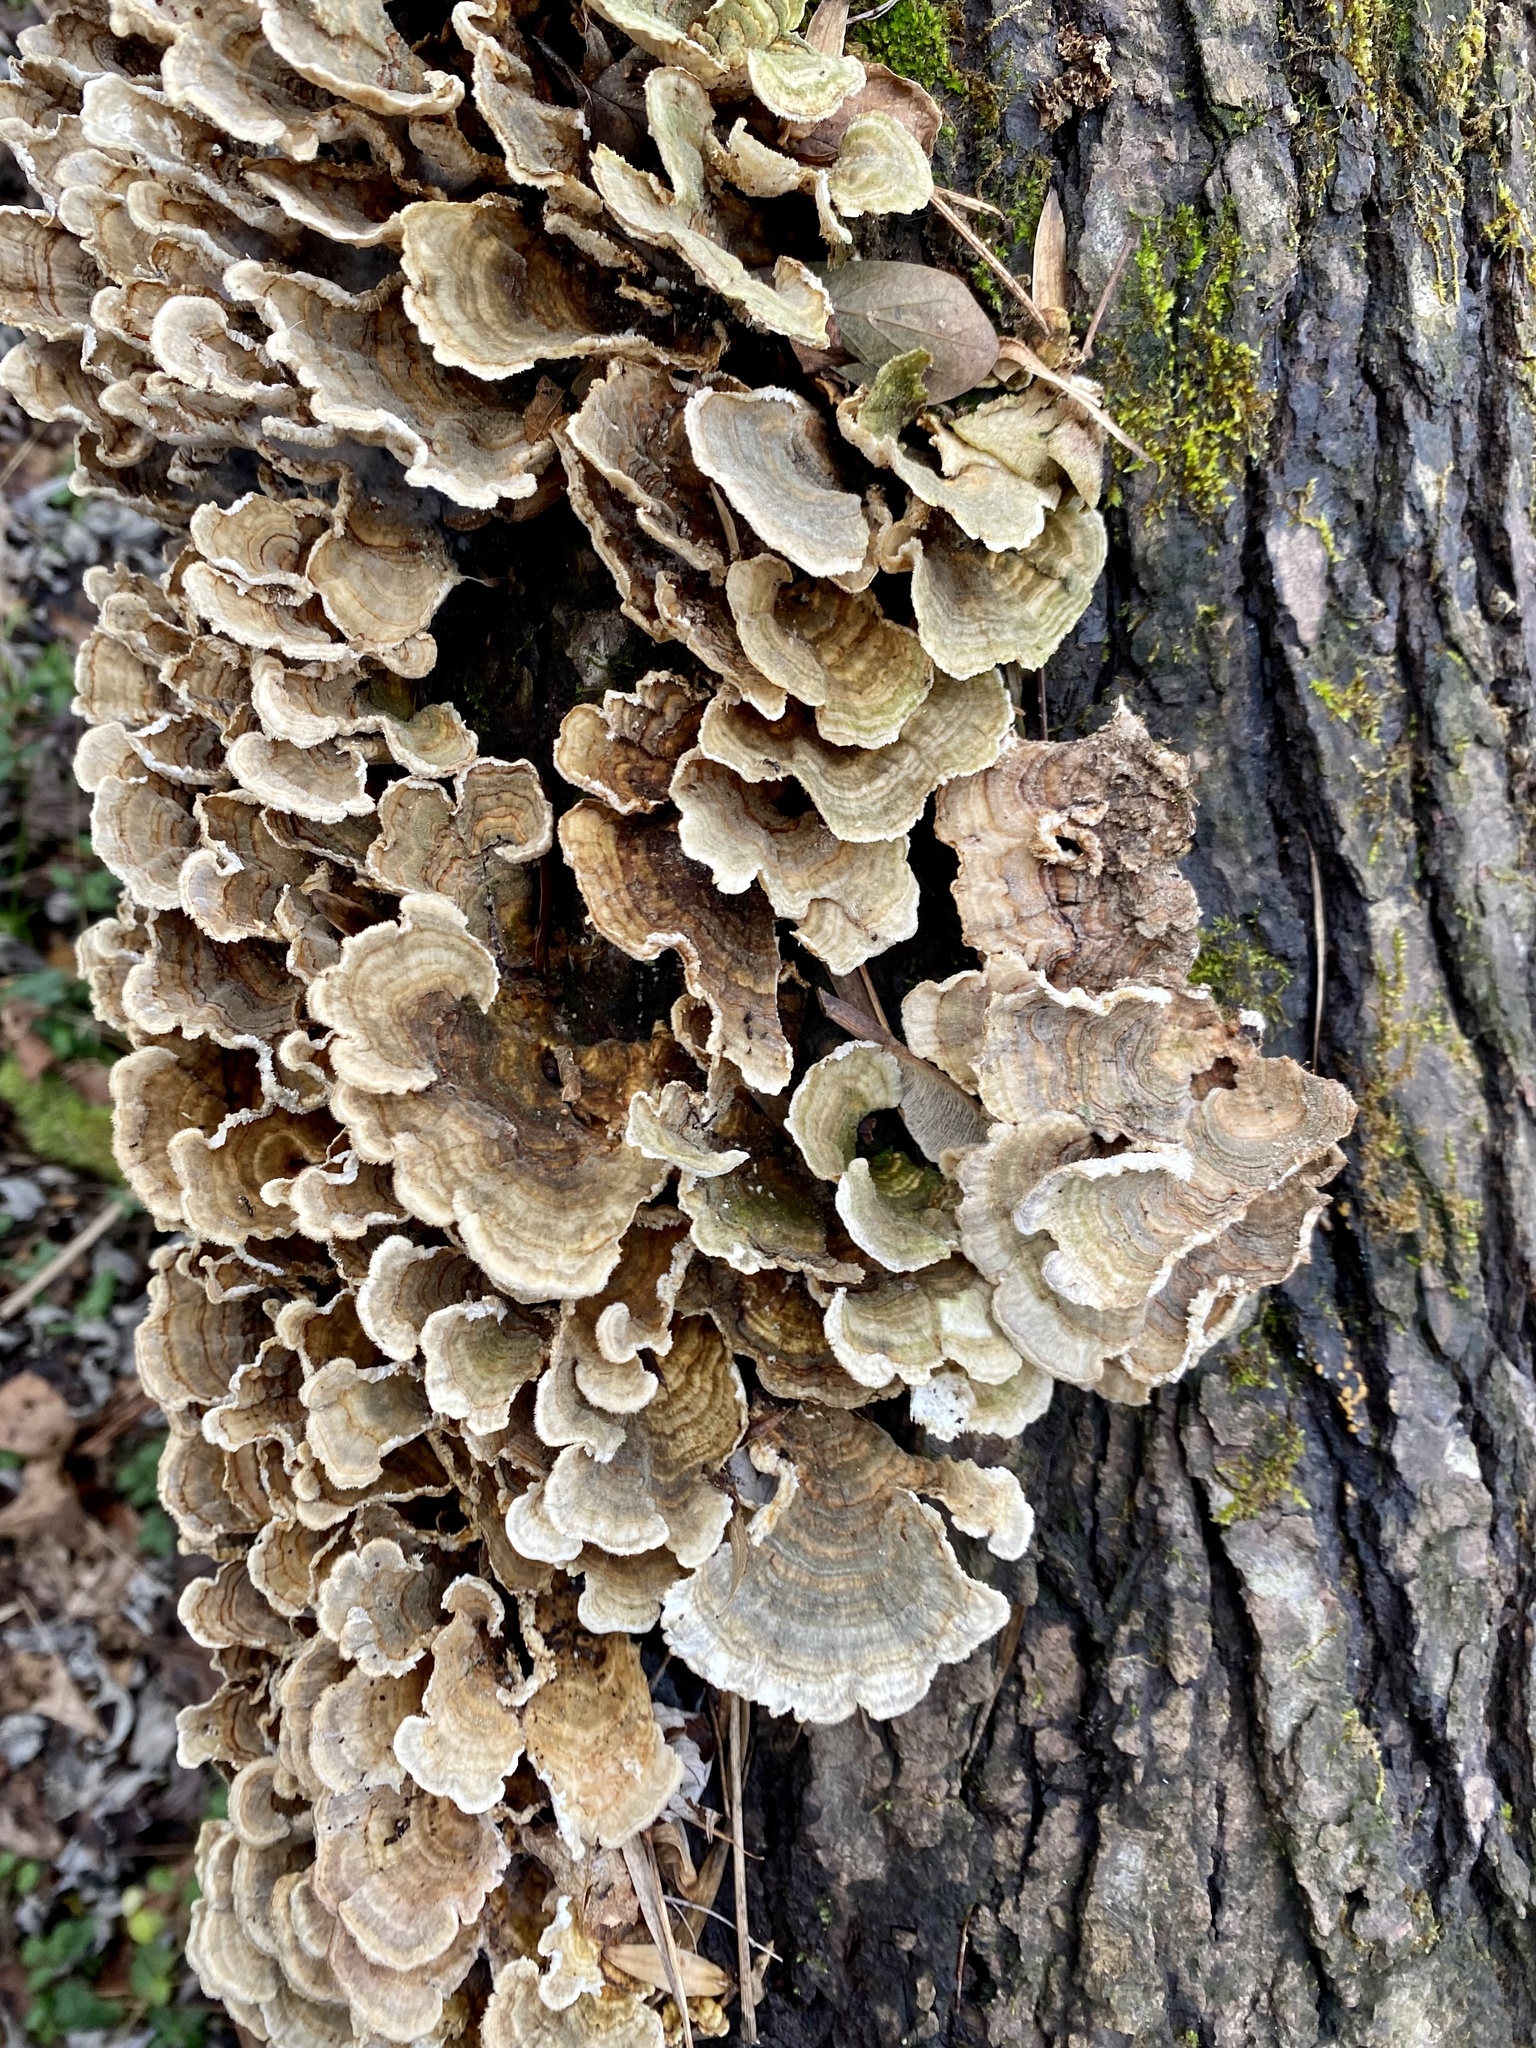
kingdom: Fungi
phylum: Basidiomycota
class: Agaricomycetes
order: Polyporales
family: Polyporaceae
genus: Trametes
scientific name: Trametes versicolor
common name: Turkeytail
